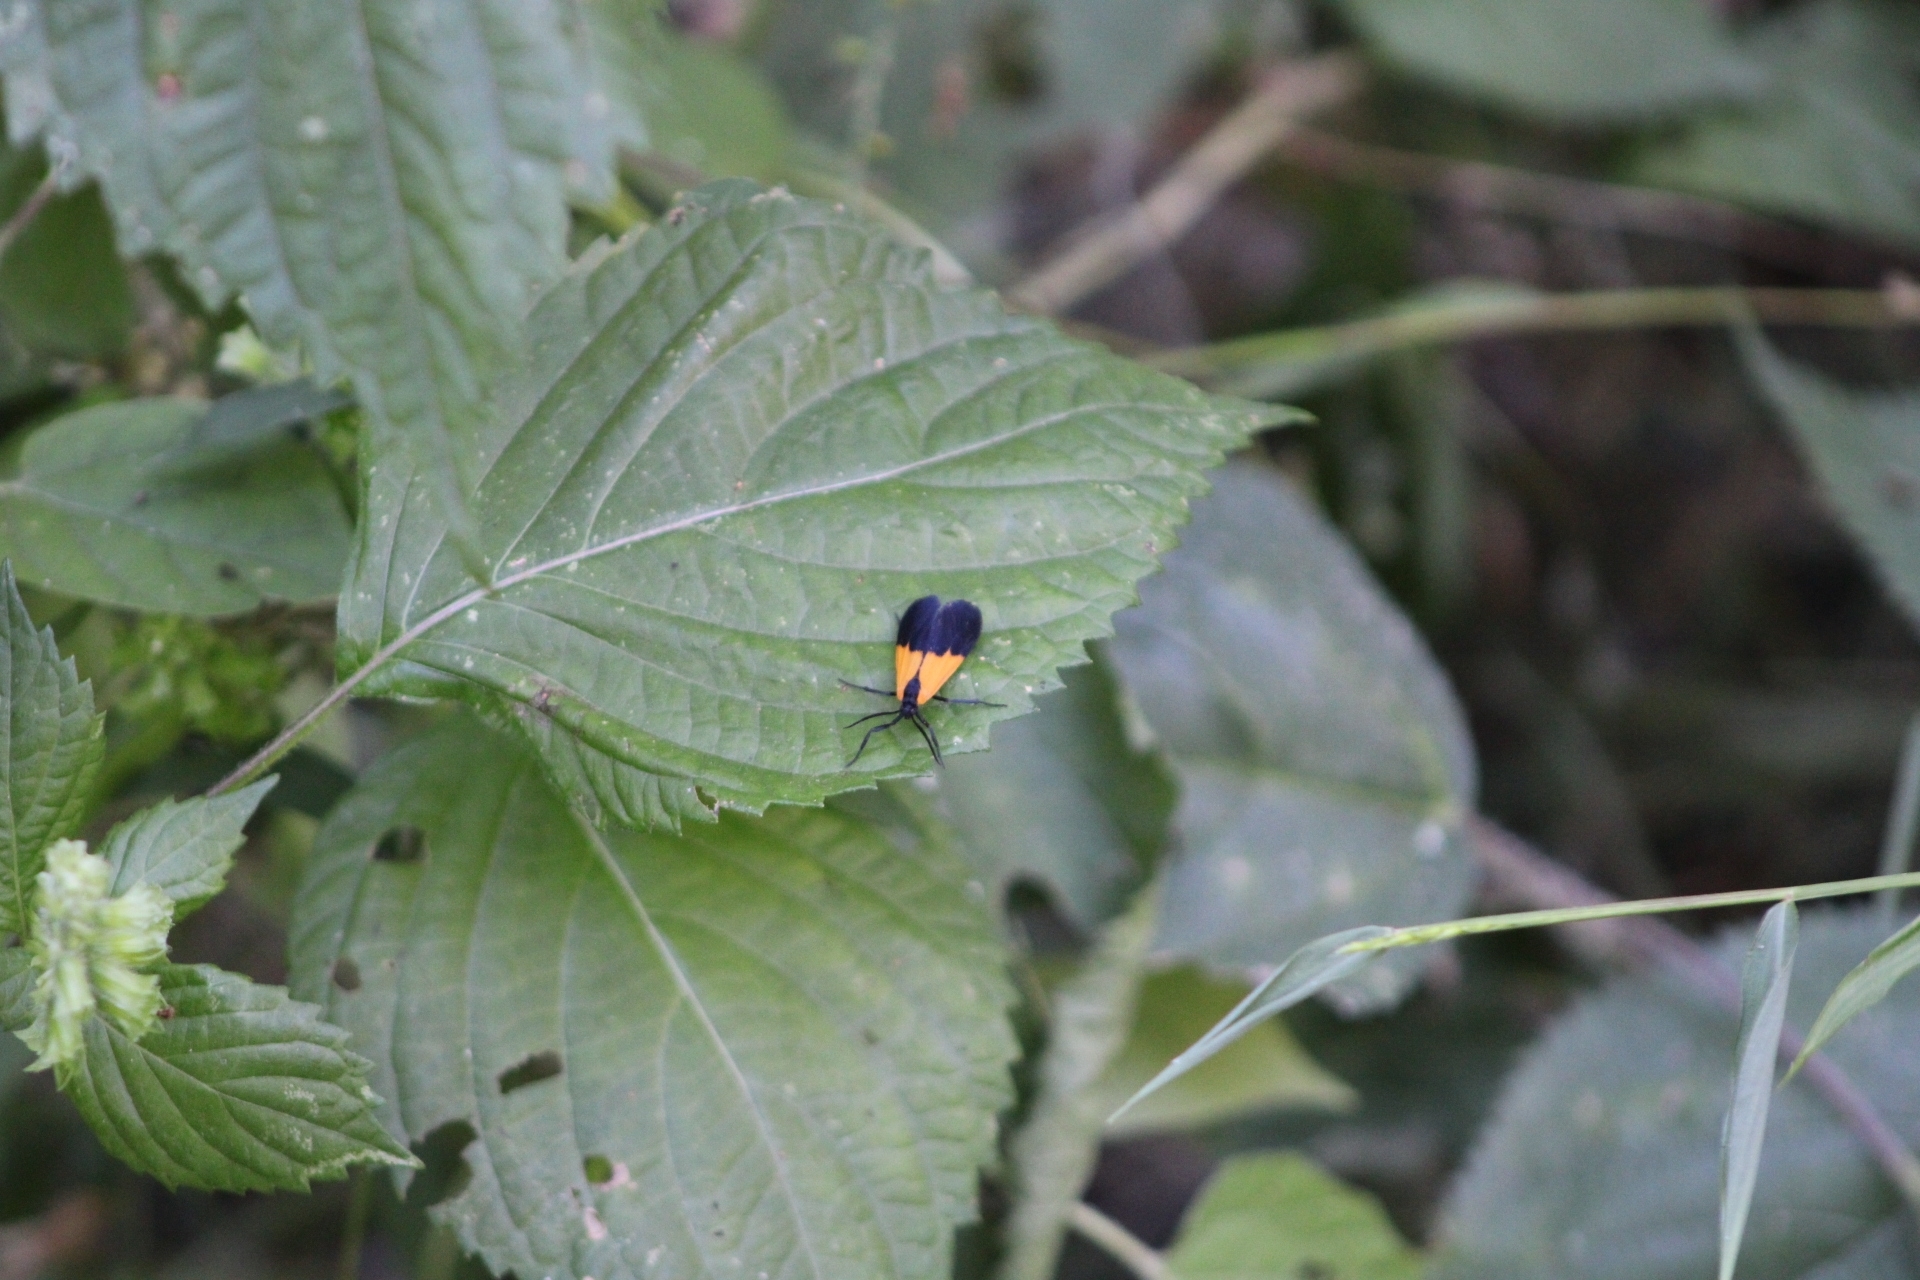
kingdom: Animalia
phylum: Arthropoda
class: Insecta
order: Lepidoptera
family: Erebidae
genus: Lycomorpha
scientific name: Lycomorpha pholus
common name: Black-and-yellow lichen moth
